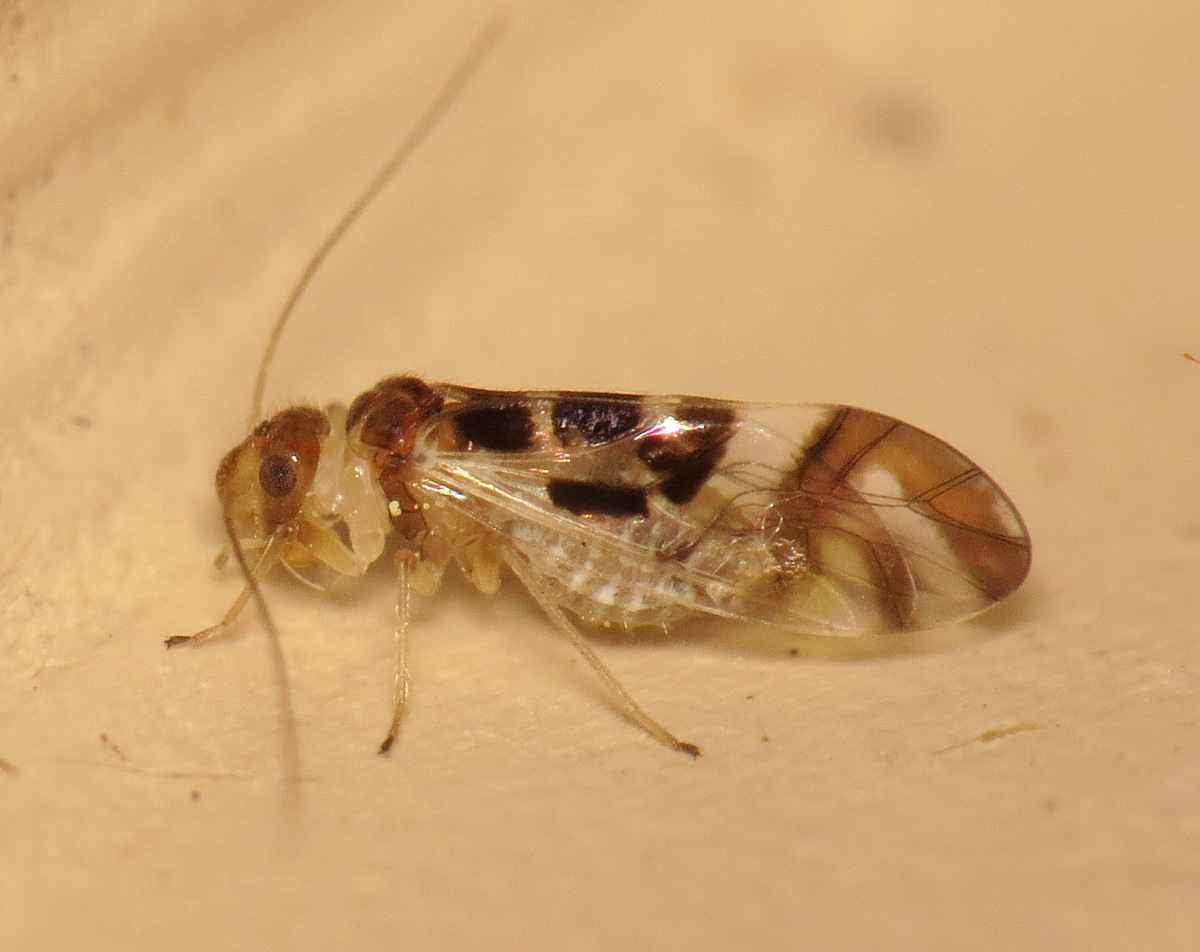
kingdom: Animalia
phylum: Arthropoda
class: Insecta
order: Psocodea
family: Stenopsocidae
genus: Graphopsocus
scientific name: Graphopsocus cruciatus
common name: Lizard bark louse
